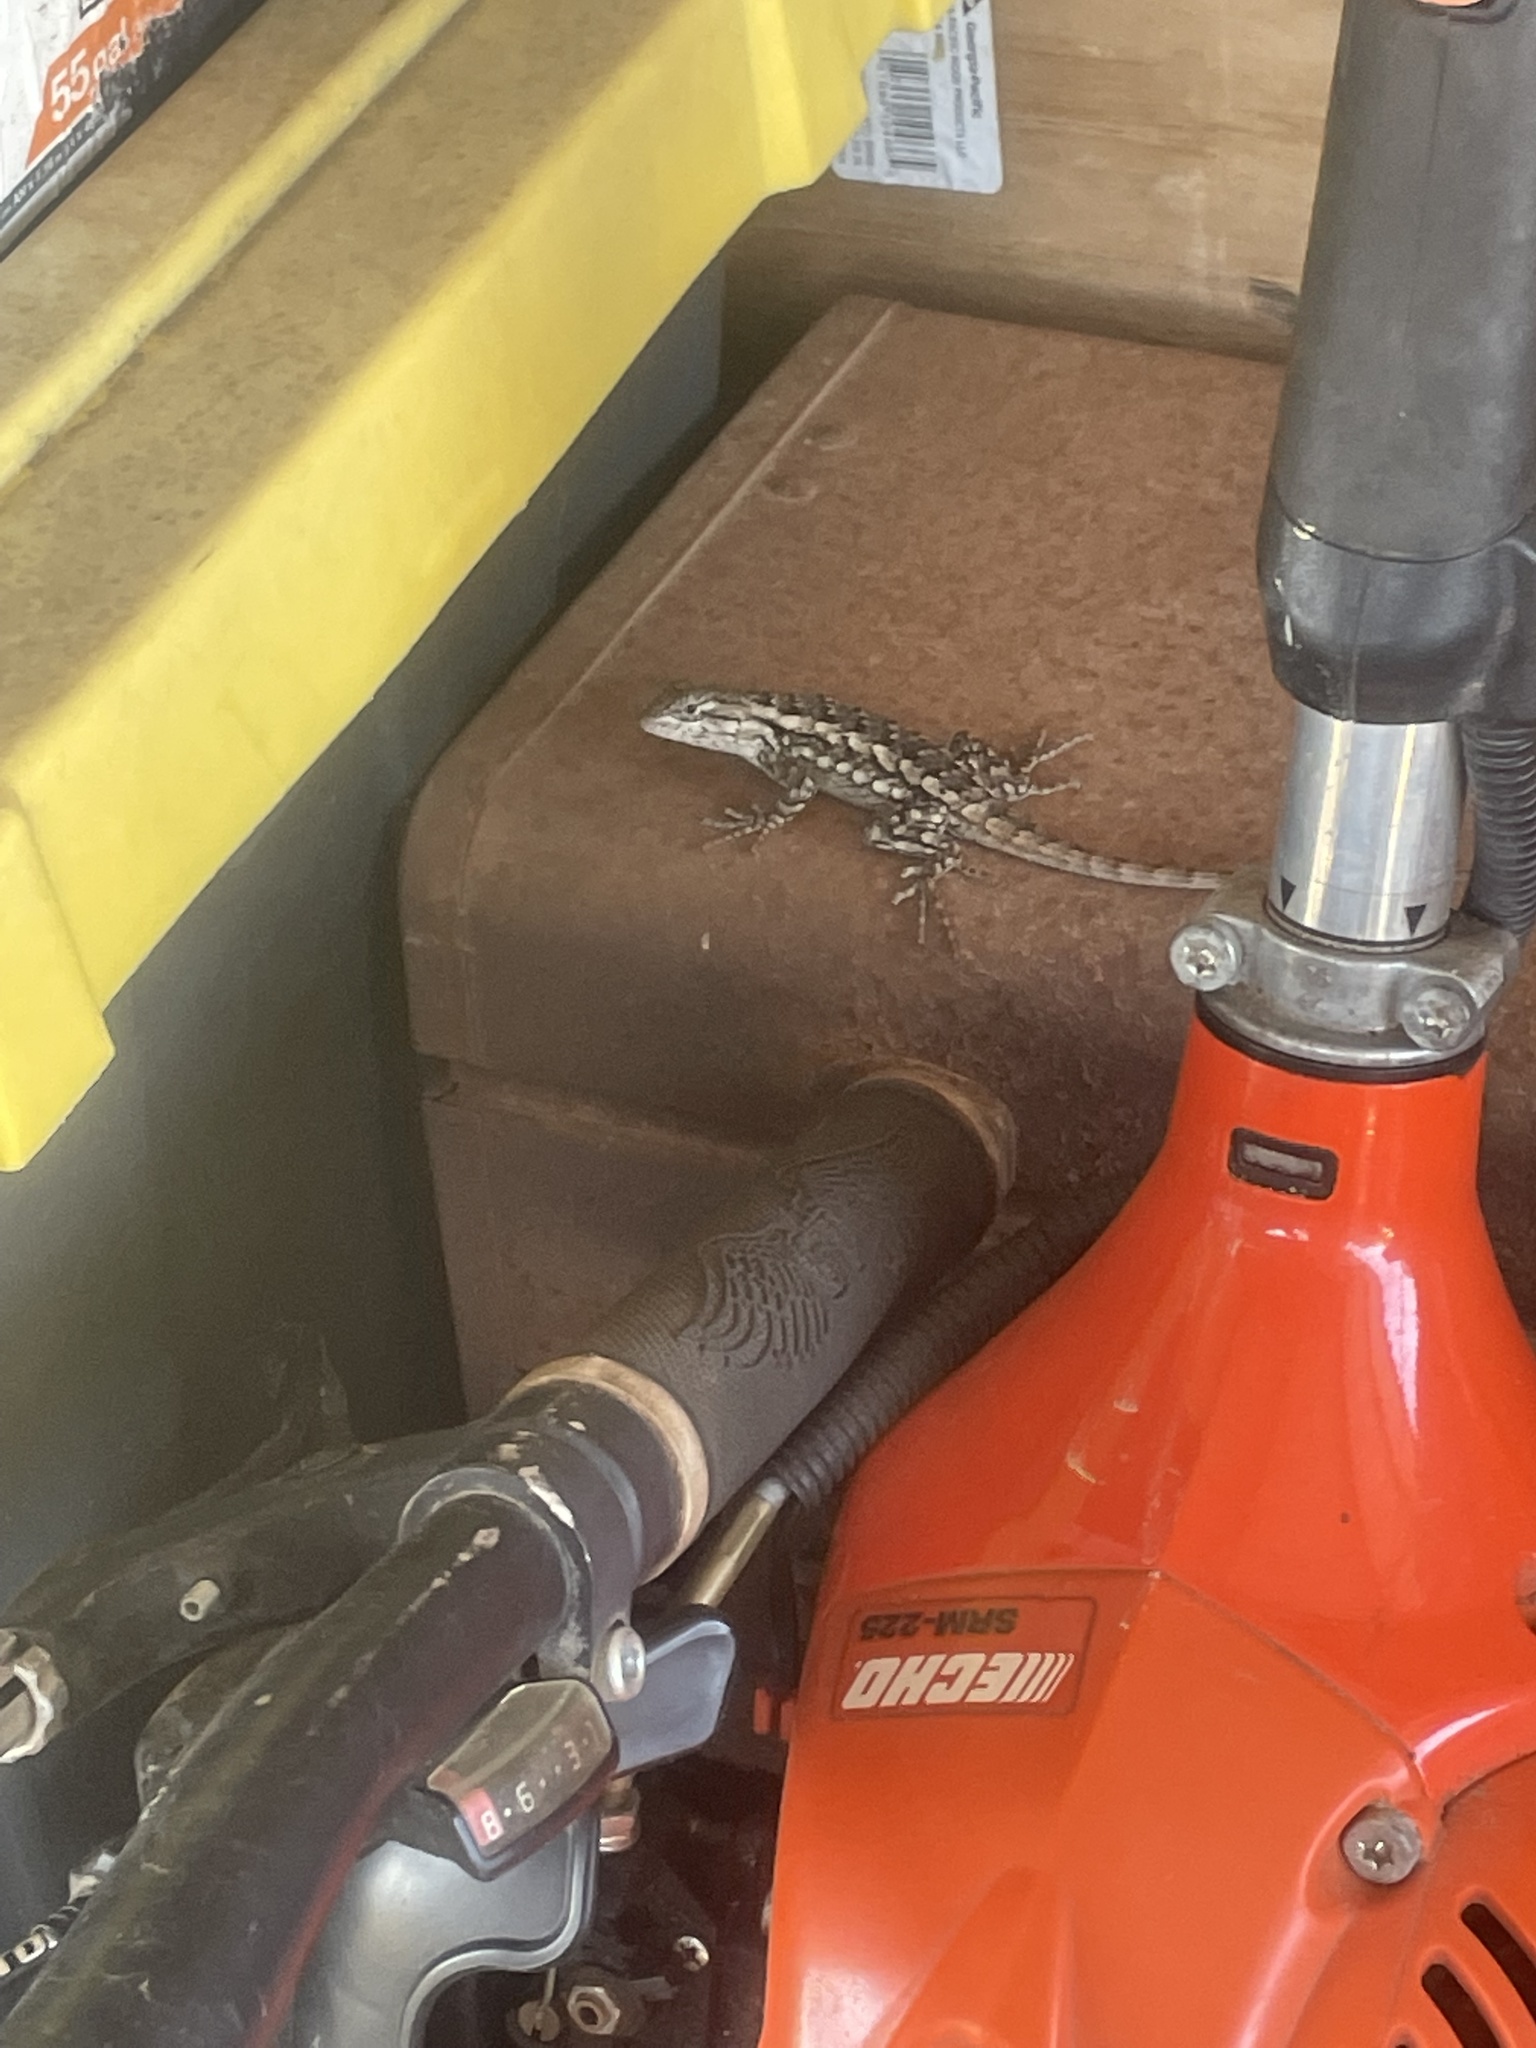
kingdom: Animalia
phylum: Chordata
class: Squamata
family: Phrynosomatidae
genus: Sceloporus
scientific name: Sceloporus olivaceus
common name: Texas spiny lizard
